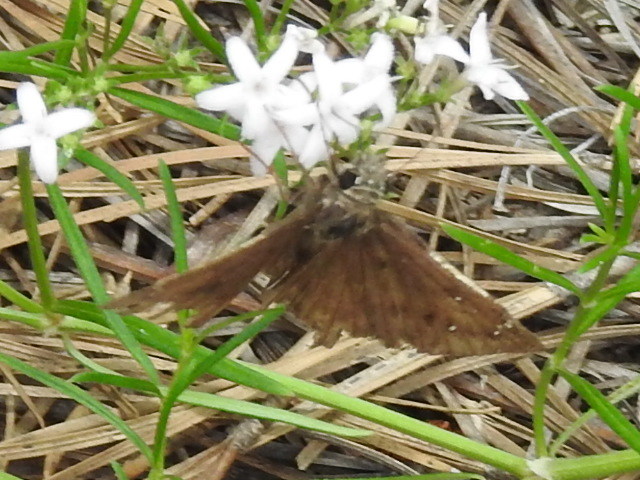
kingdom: Animalia
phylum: Arthropoda
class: Insecta
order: Lepidoptera
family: Hesperiidae
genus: Erynnis
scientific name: Erynnis horatius
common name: Horace's duskywing
